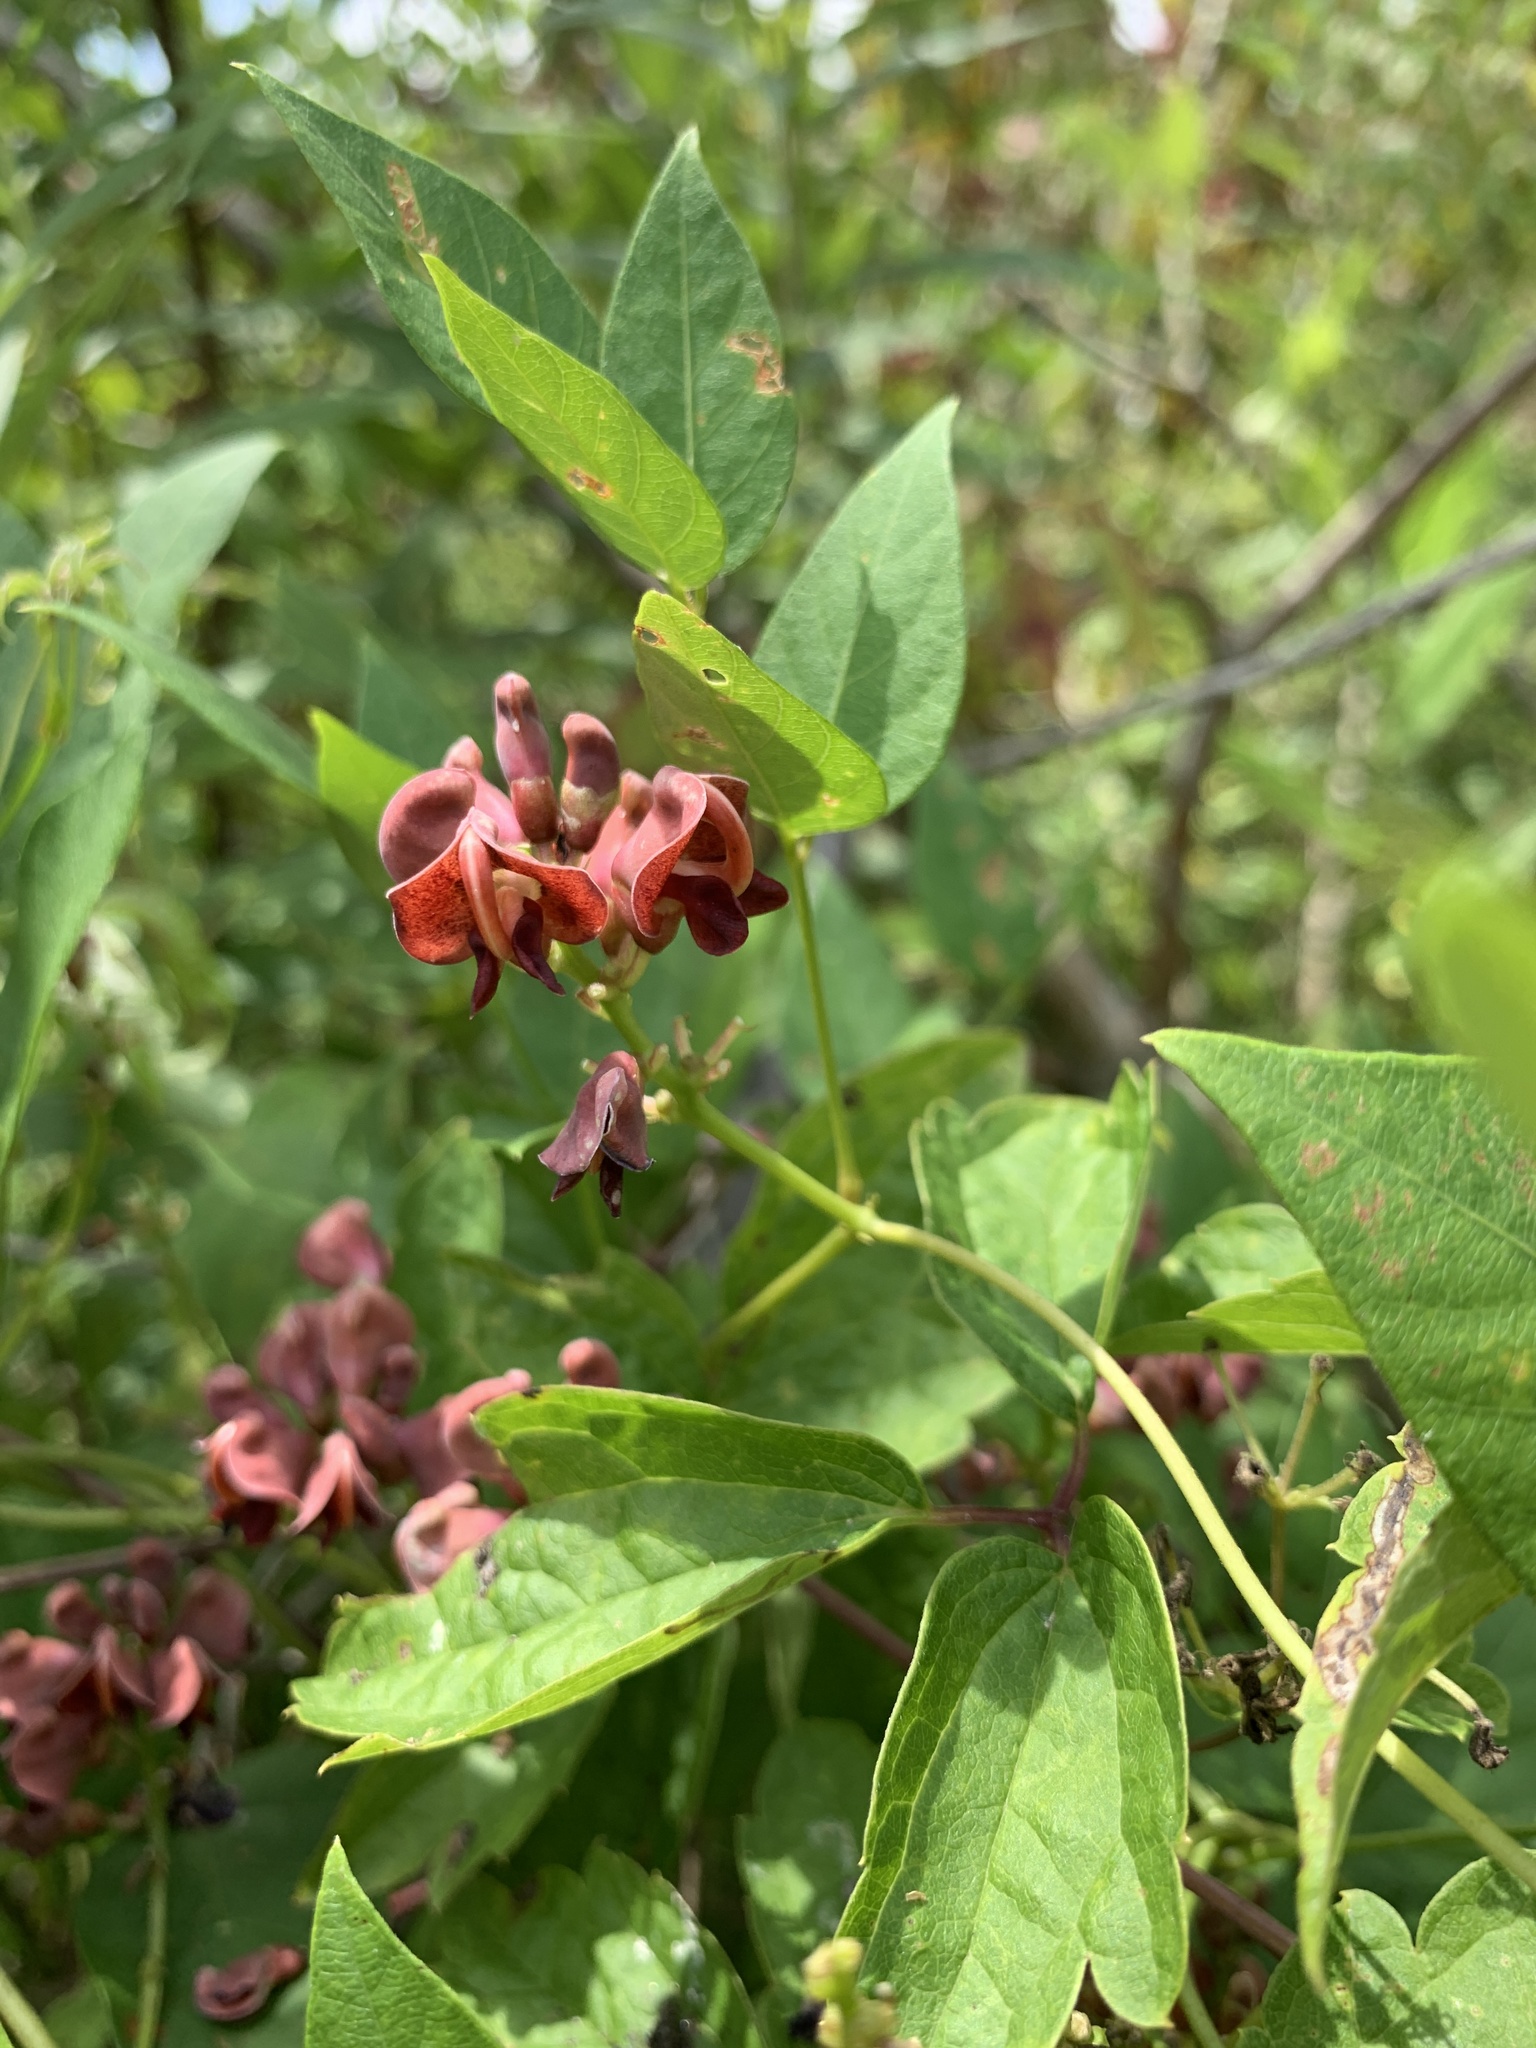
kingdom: Plantae
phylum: Tracheophyta
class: Magnoliopsida
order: Fabales
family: Fabaceae
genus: Apios
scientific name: Apios americana
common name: American potato-bean
